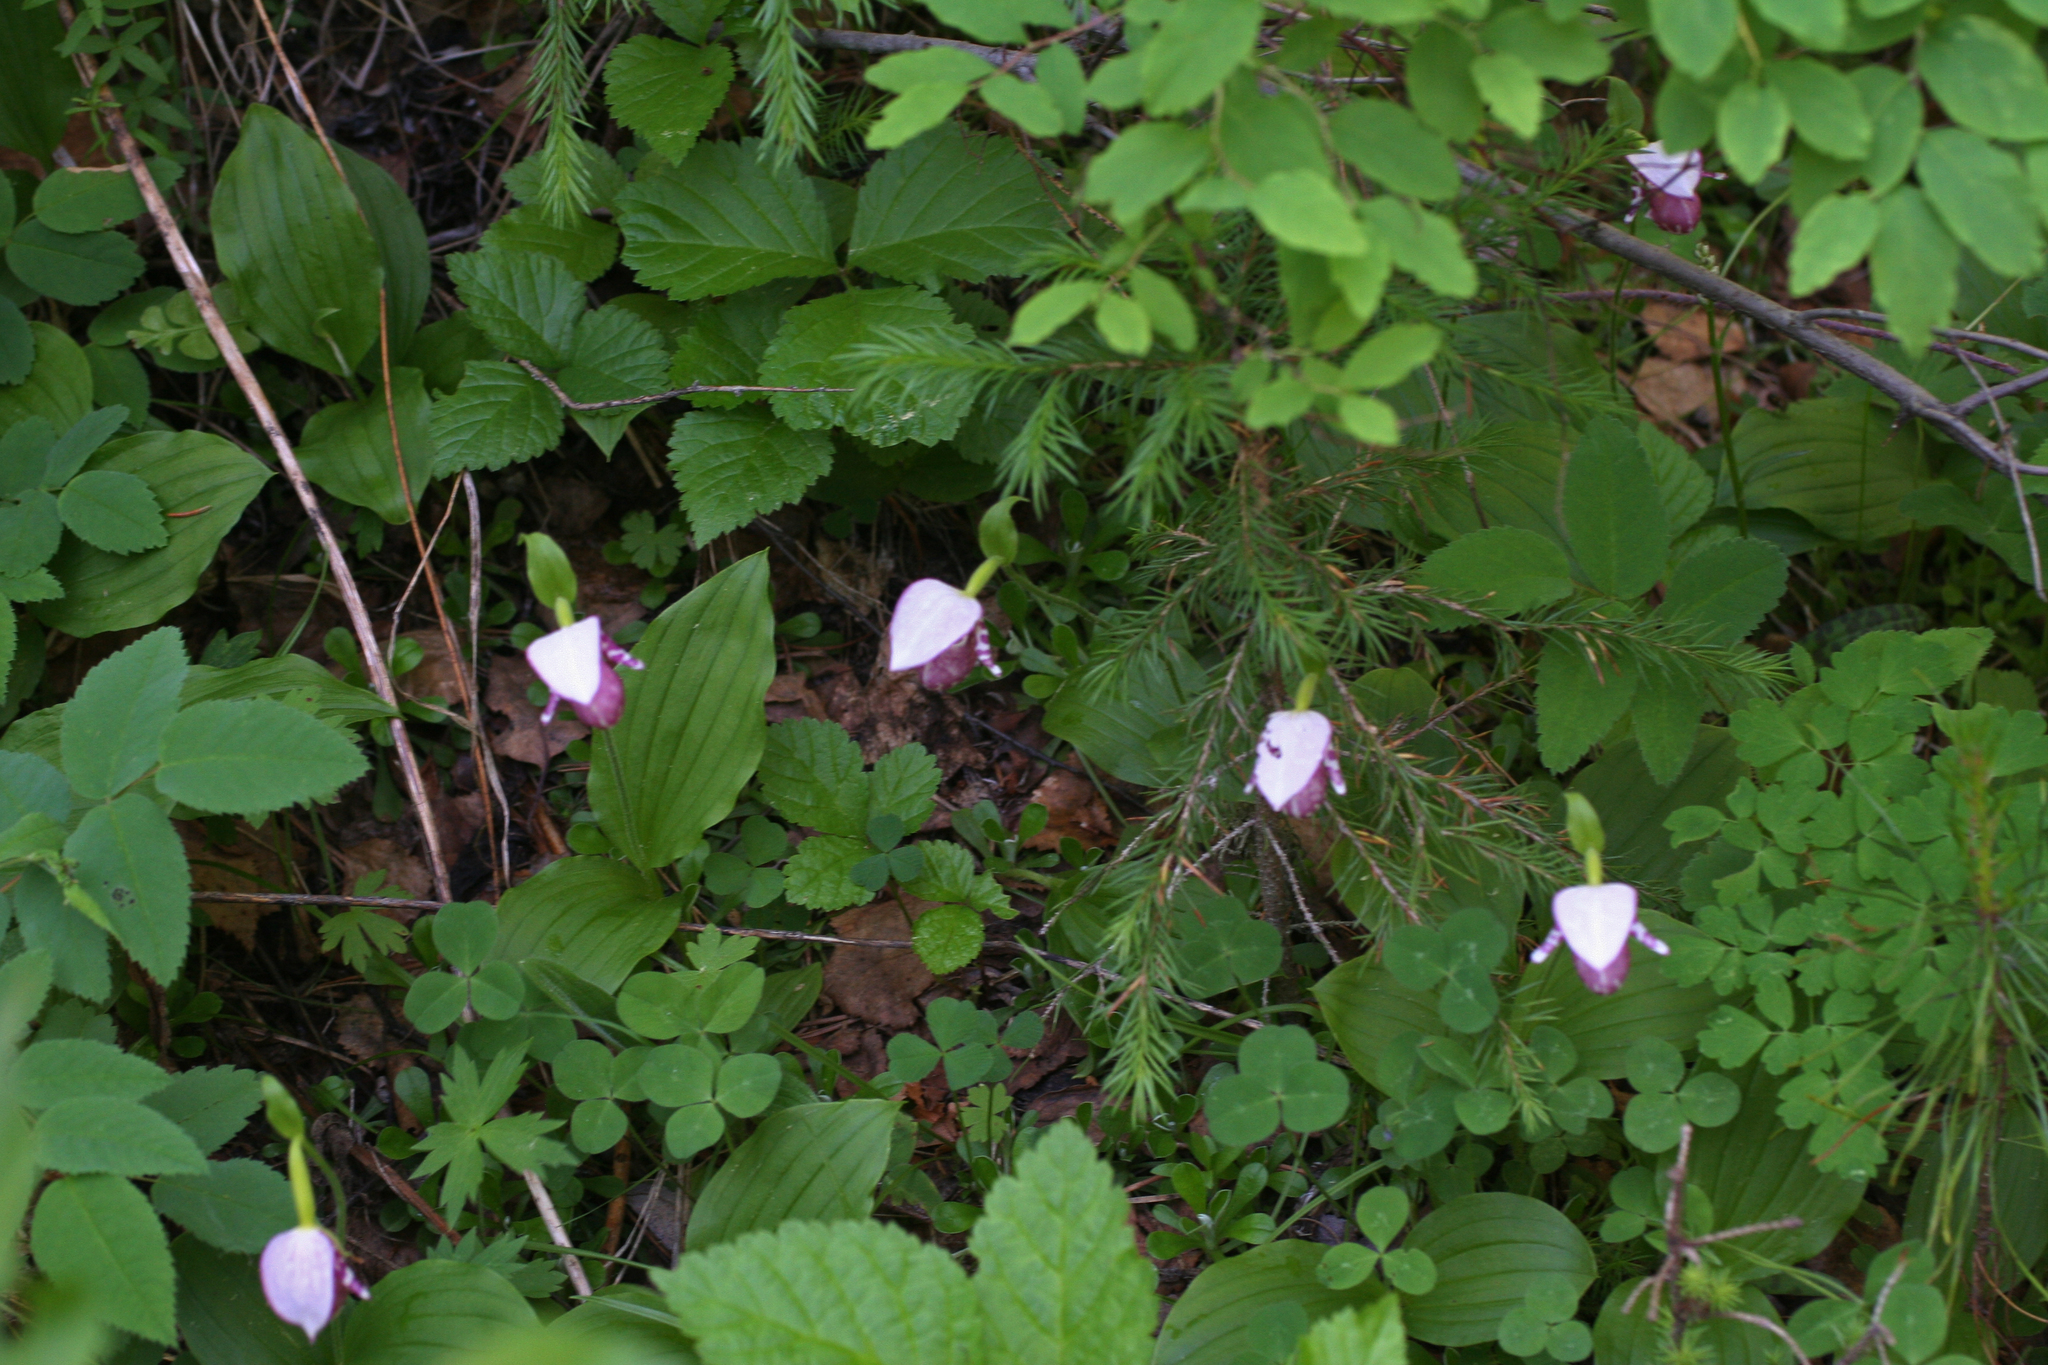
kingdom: Plantae
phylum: Tracheophyta
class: Pinopsida
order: Pinales
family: Pinaceae
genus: Picea
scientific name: Picea obovata
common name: Siberian spruce
